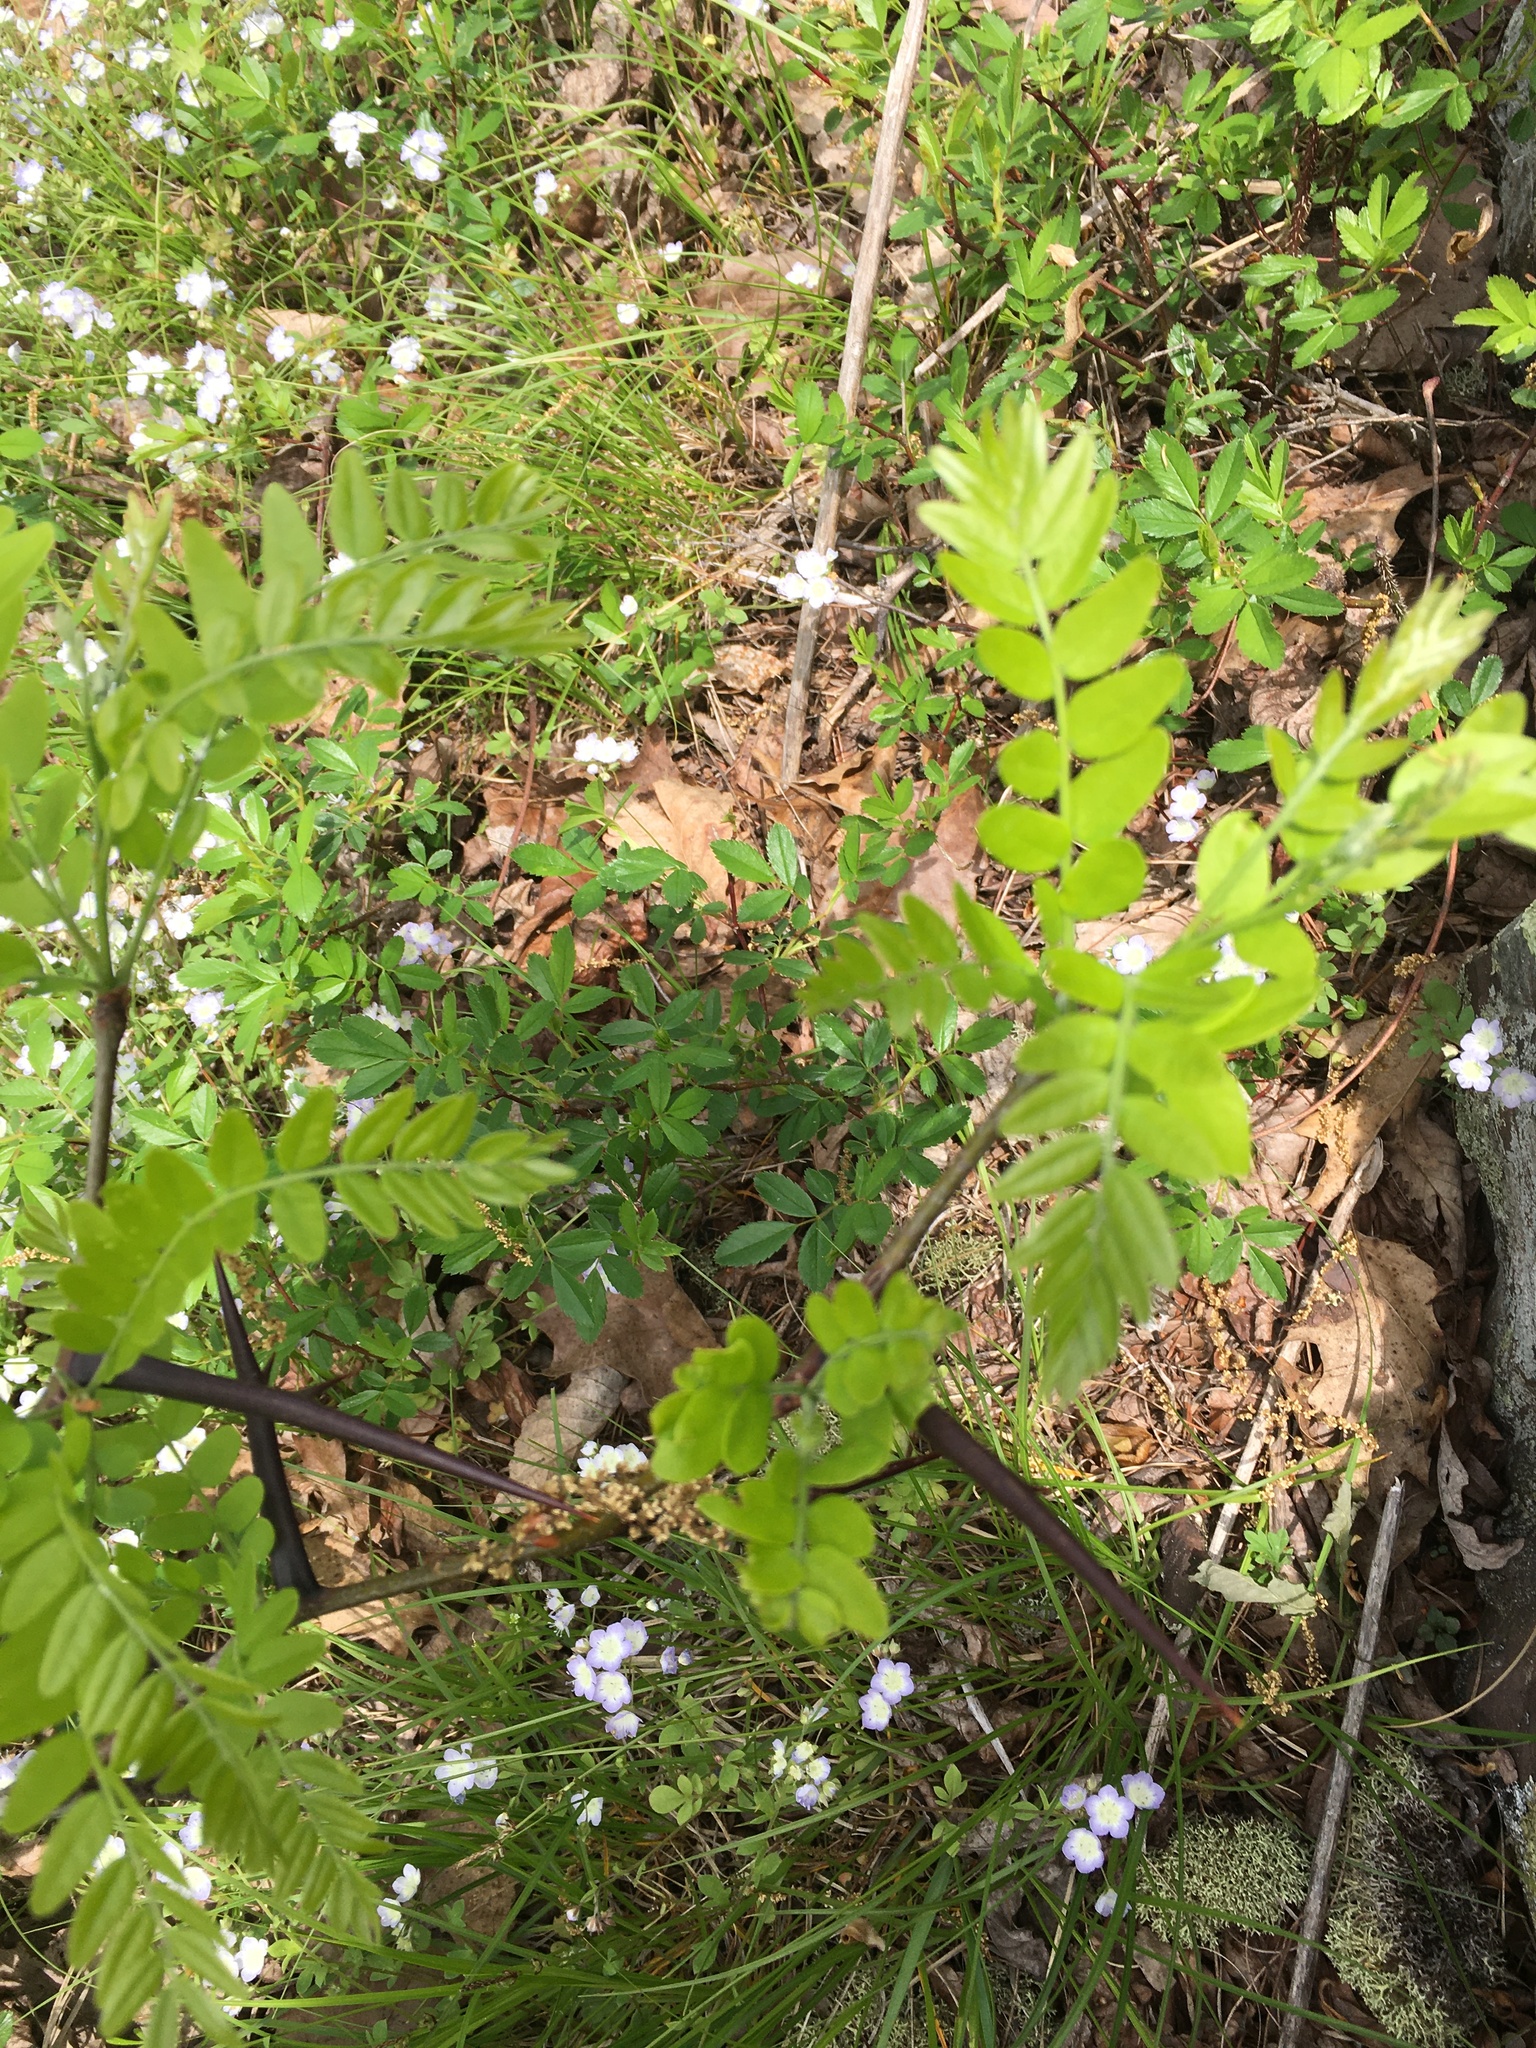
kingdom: Plantae
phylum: Tracheophyta
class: Magnoliopsida
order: Fabales
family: Fabaceae
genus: Gleditsia
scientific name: Gleditsia triacanthos
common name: Common honeylocust
